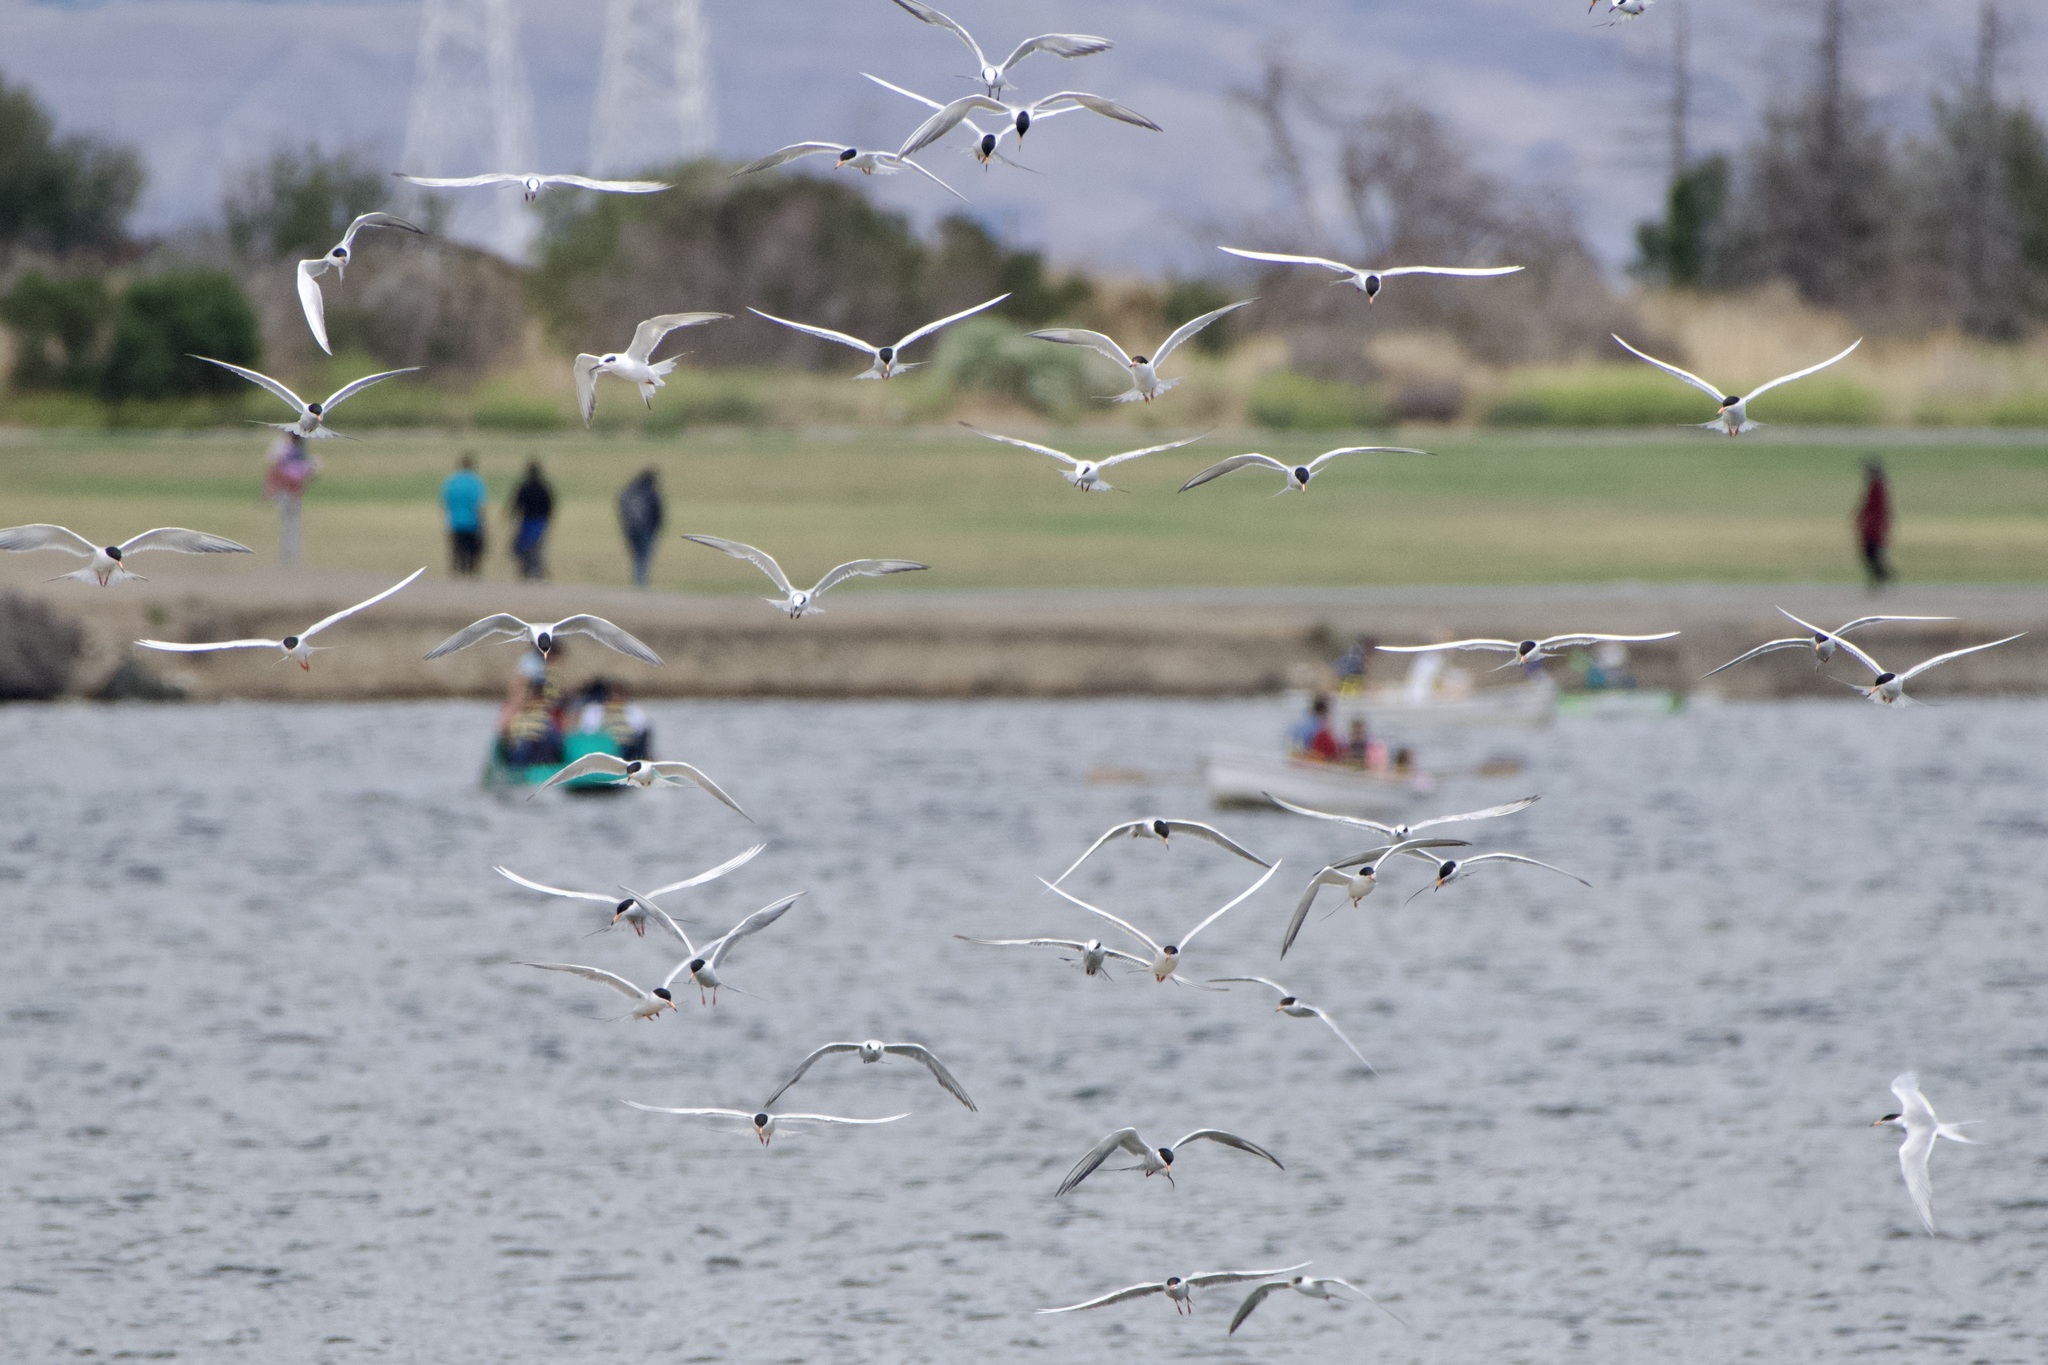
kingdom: Animalia
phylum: Chordata
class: Aves
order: Charadriiformes
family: Laridae
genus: Sterna
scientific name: Sterna forsteri
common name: Forster's tern
